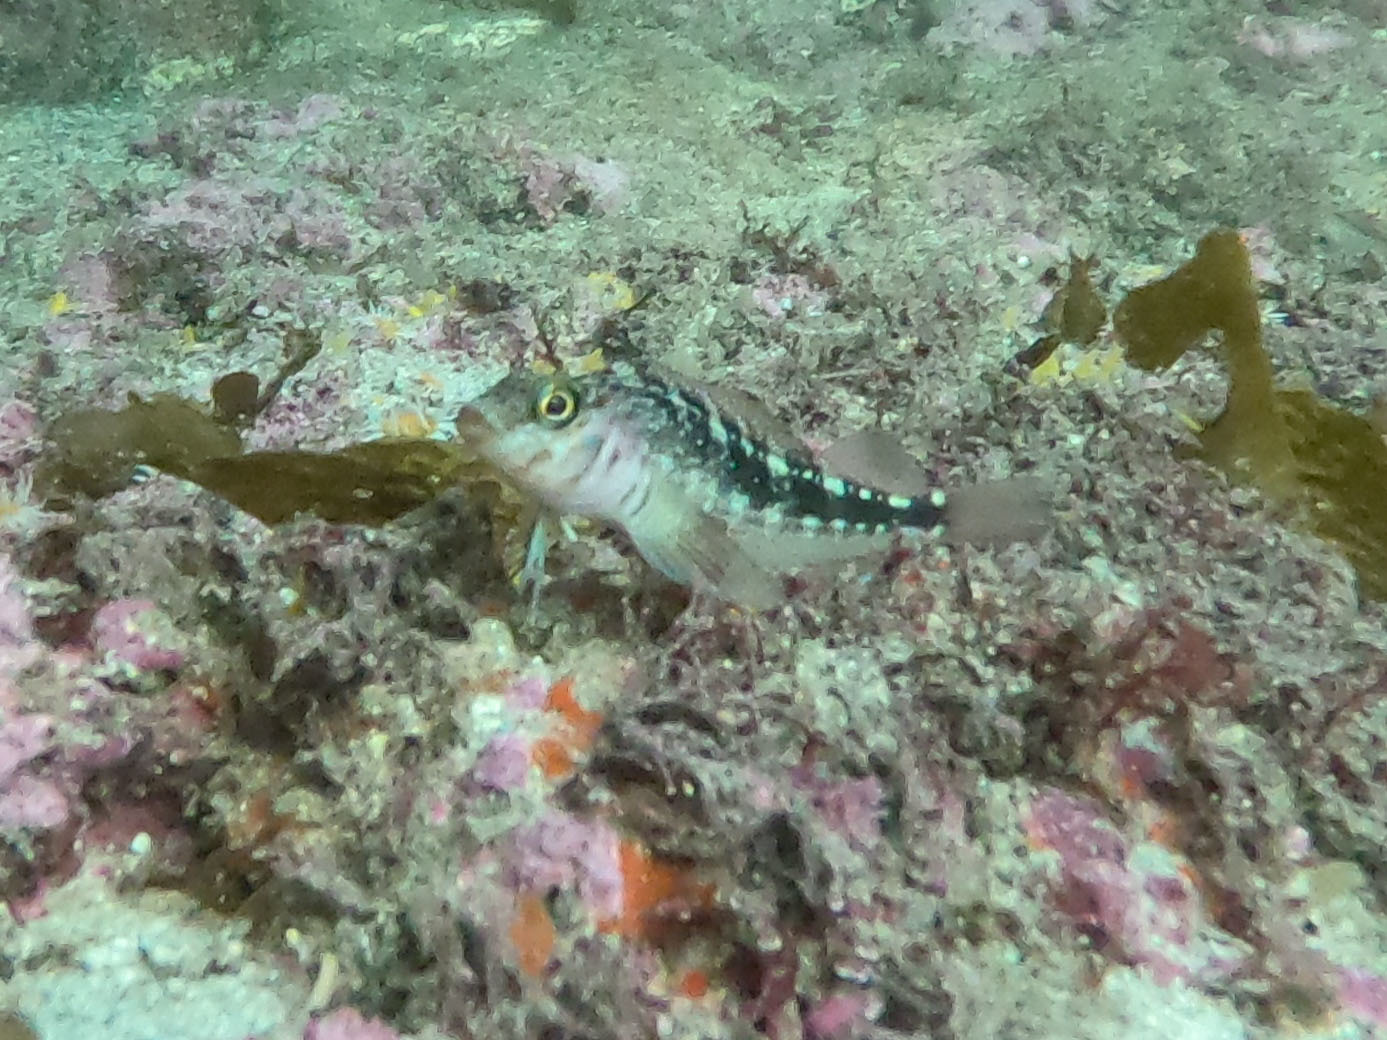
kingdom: Animalia
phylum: Chordata
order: Perciformes
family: Tripterygiidae
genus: Forsterygion
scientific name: Forsterygion varium
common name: Variable triplefin
